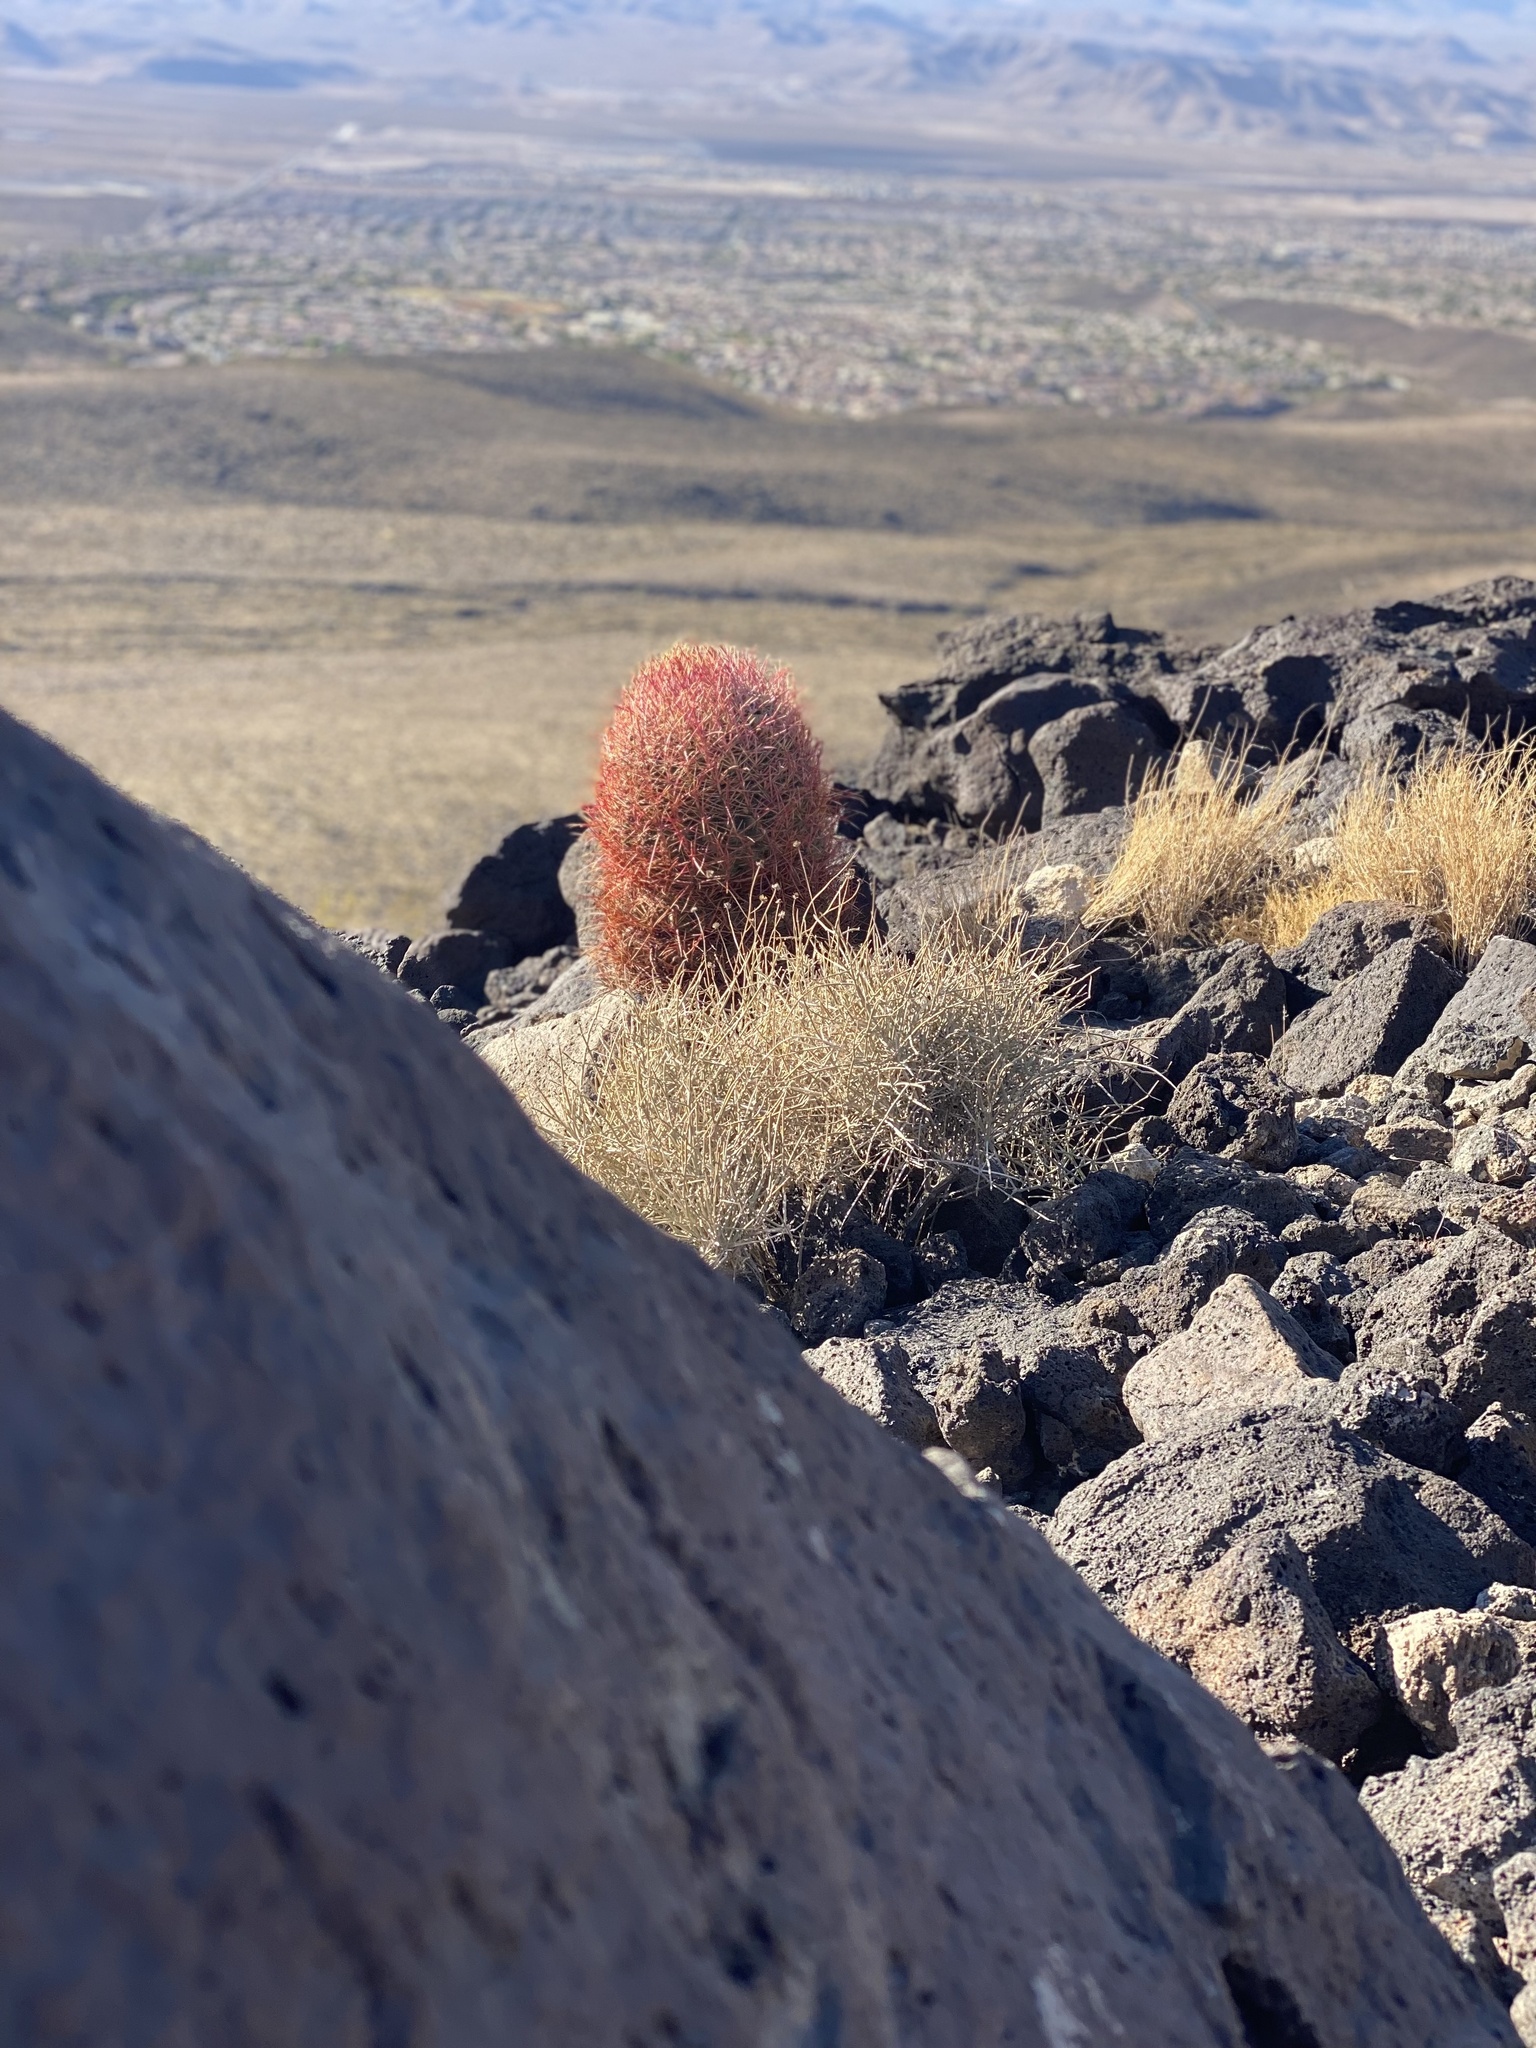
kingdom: Plantae
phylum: Tracheophyta
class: Magnoliopsida
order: Caryophyllales
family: Cactaceae
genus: Ferocactus
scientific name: Ferocactus cylindraceus
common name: California barrel cactus
